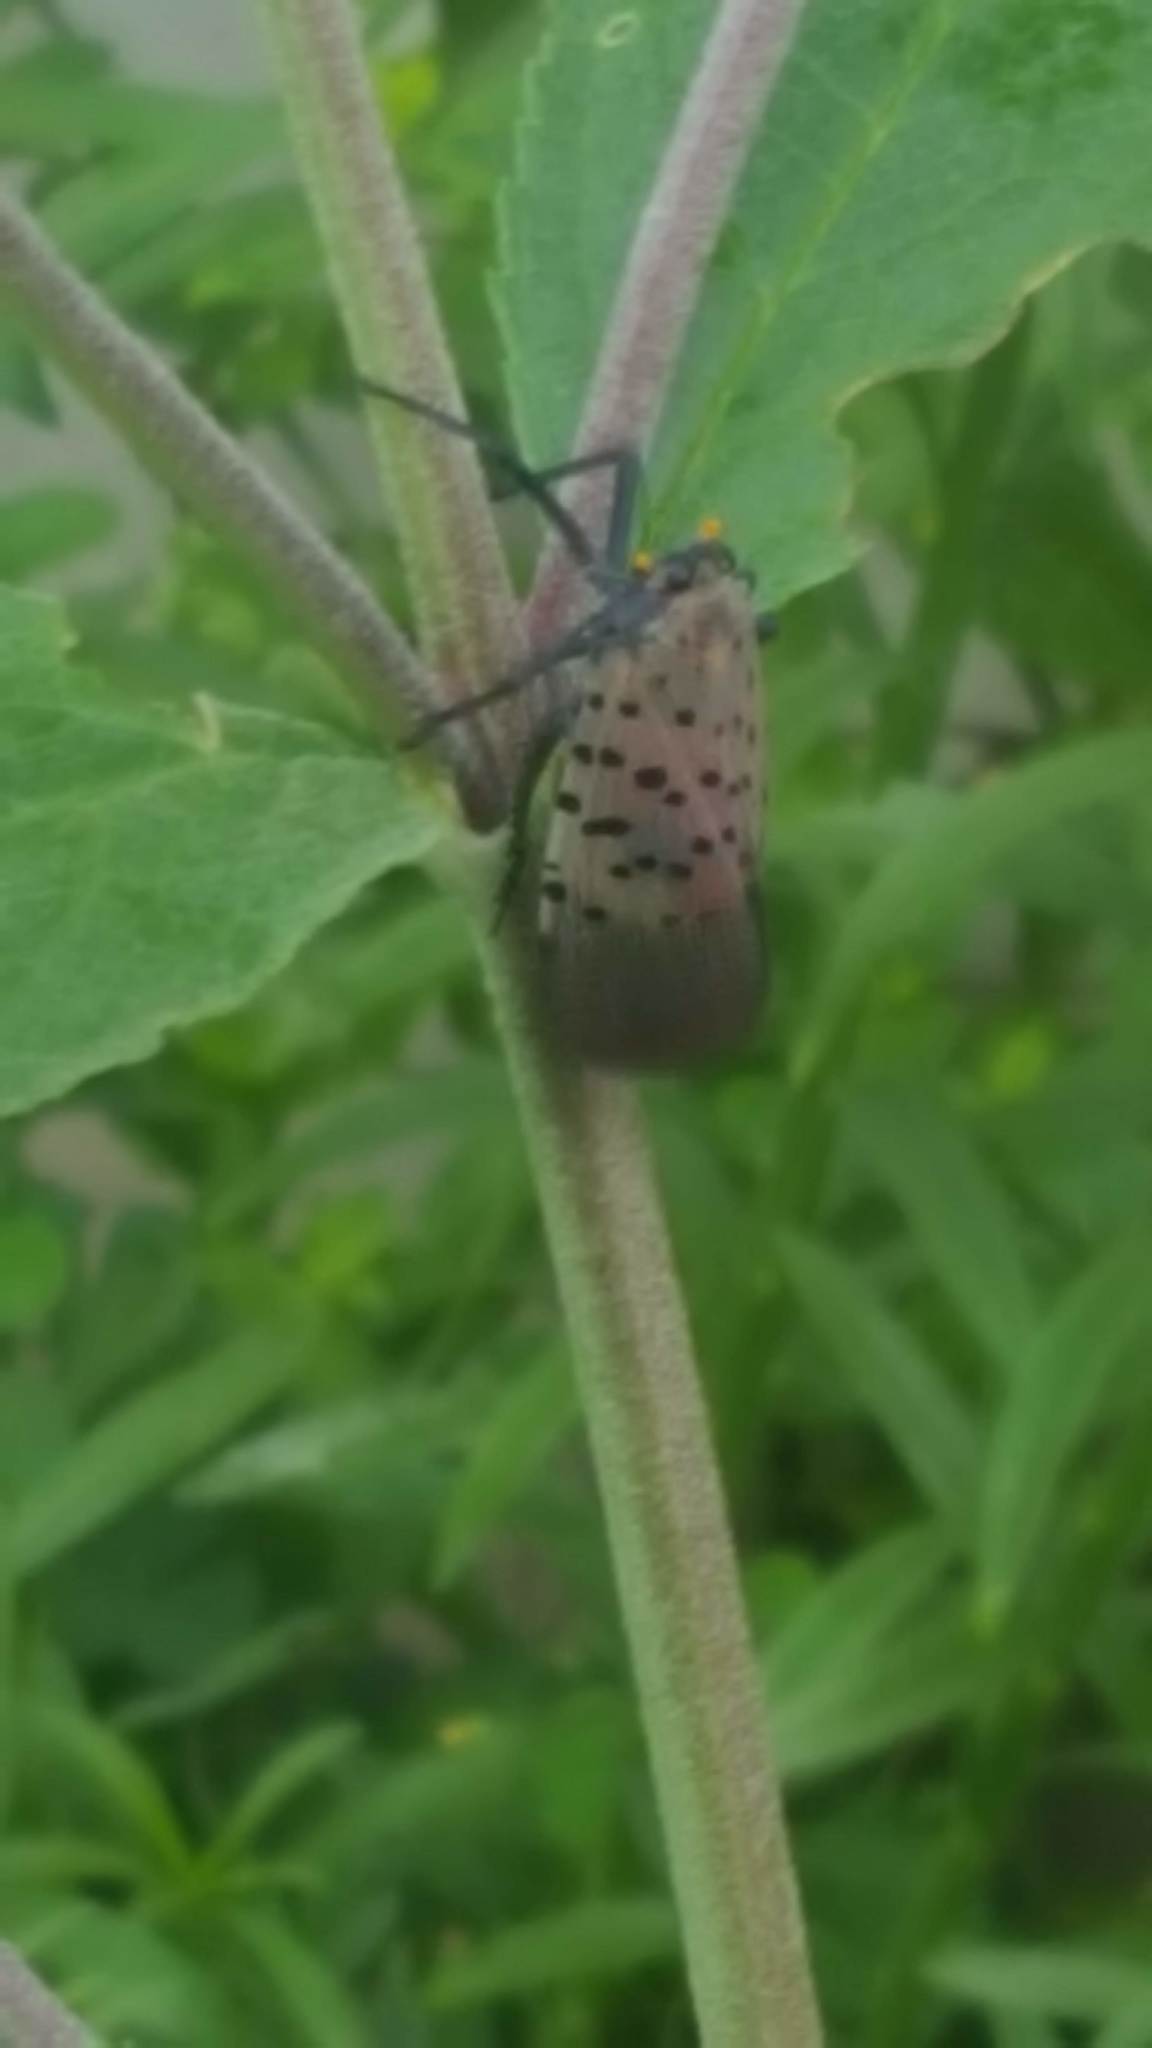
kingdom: Animalia
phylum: Arthropoda
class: Insecta
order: Hemiptera
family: Fulgoridae
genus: Lycorma
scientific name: Lycorma delicatula
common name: Spotted lanternfly
